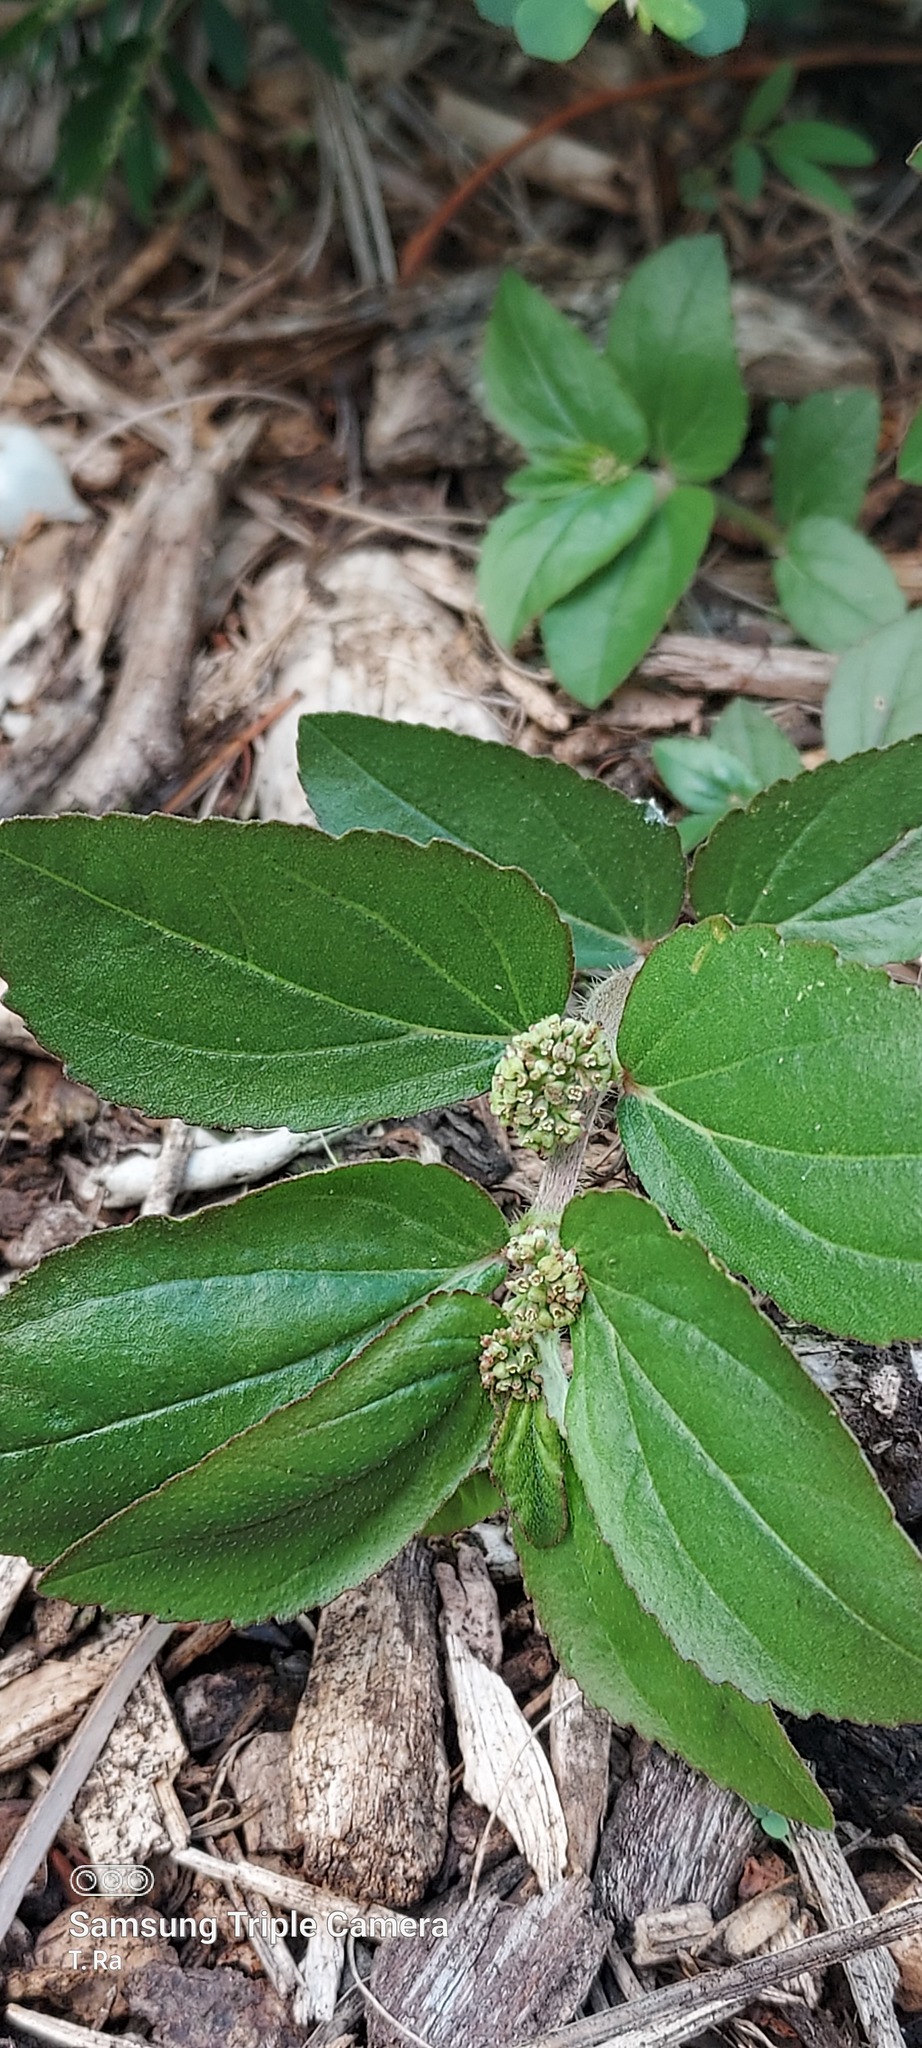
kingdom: Plantae
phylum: Tracheophyta
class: Magnoliopsida
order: Malpighiales
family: Euphorbiaceae
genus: Euphorbia
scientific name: Euphorbia hirta
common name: Pillpod sandmat
